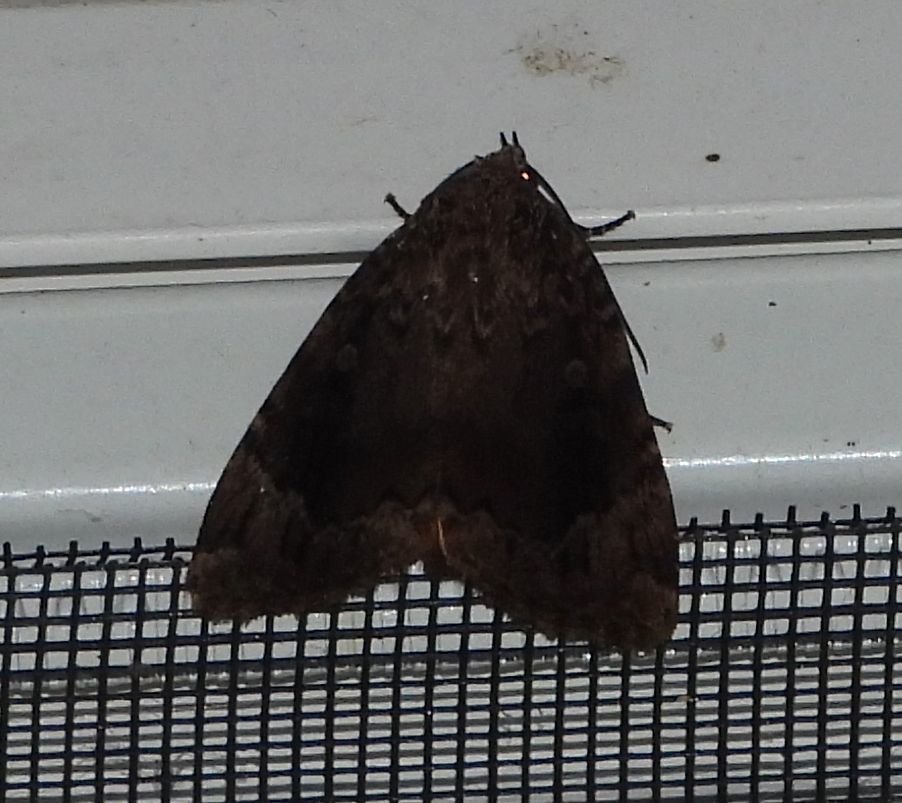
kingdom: Animalia
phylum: Arthropoda
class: Insecta
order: Lepidoptera
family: Noctuidae
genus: Amphipyra
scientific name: Amphipyra pyramidoides
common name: American copper underwing
